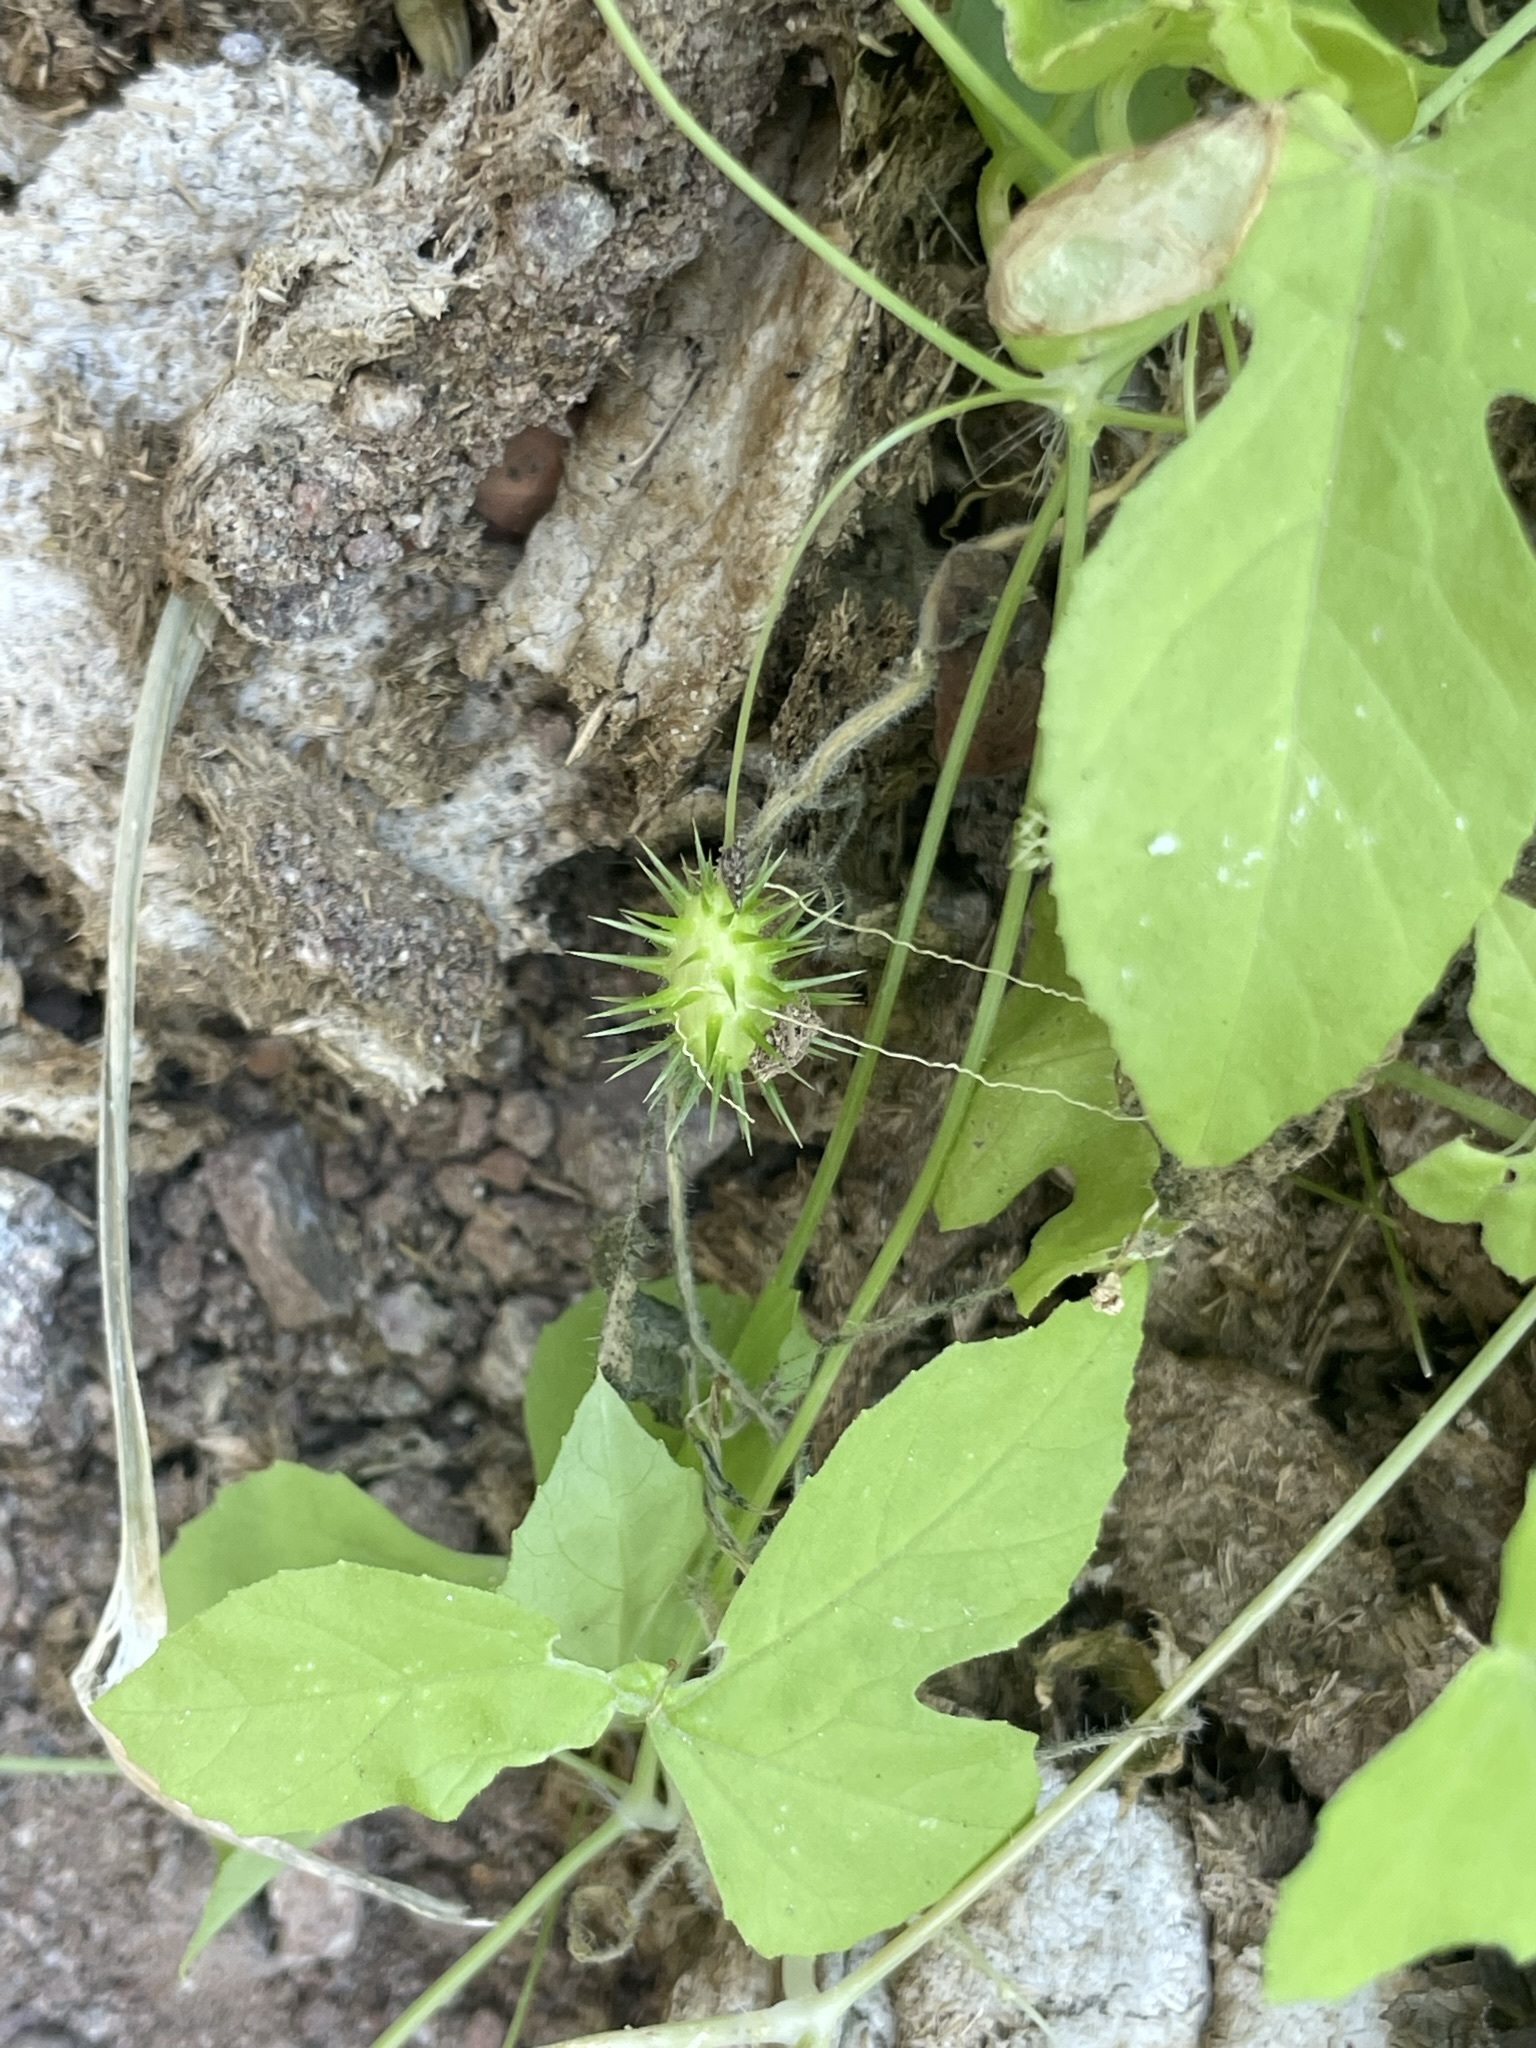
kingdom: Plantae
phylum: Tracheophyta
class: Magnoliopsida
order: Cucurbitales
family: Cucurbitaceae
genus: Echinopepon
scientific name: Echinopepon minimus
